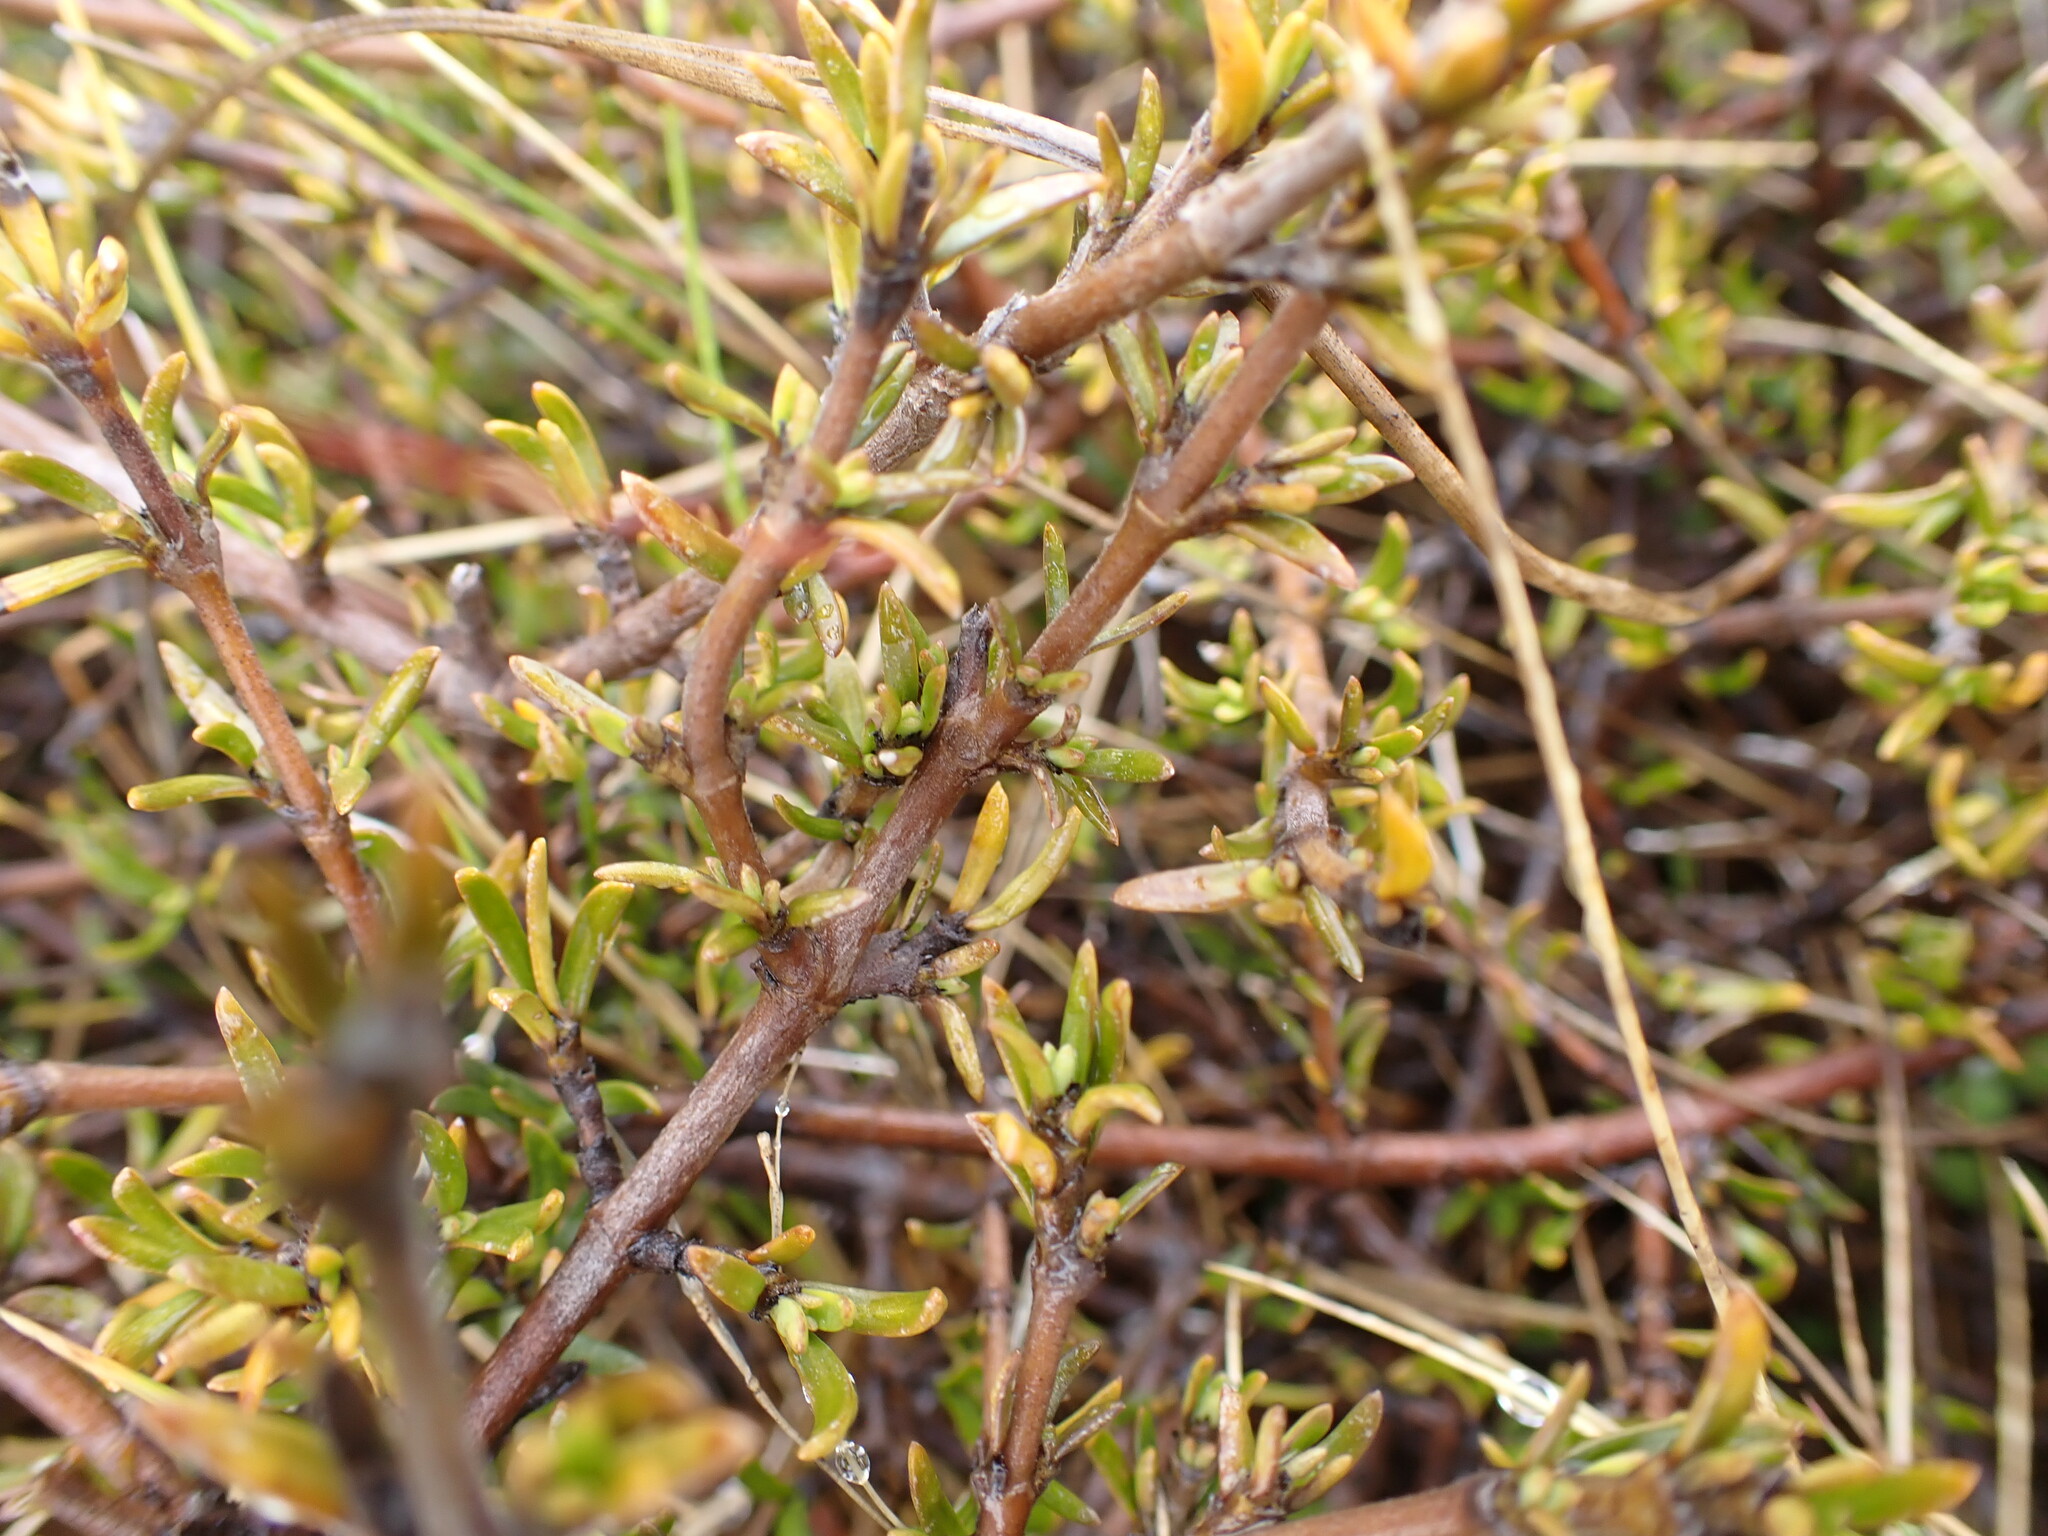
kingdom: Plantae
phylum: Tracheophyta
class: Magnoliopsida
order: Gentianales
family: Rubiaceae
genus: Coprosma
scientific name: Coprosma cheesemanii
